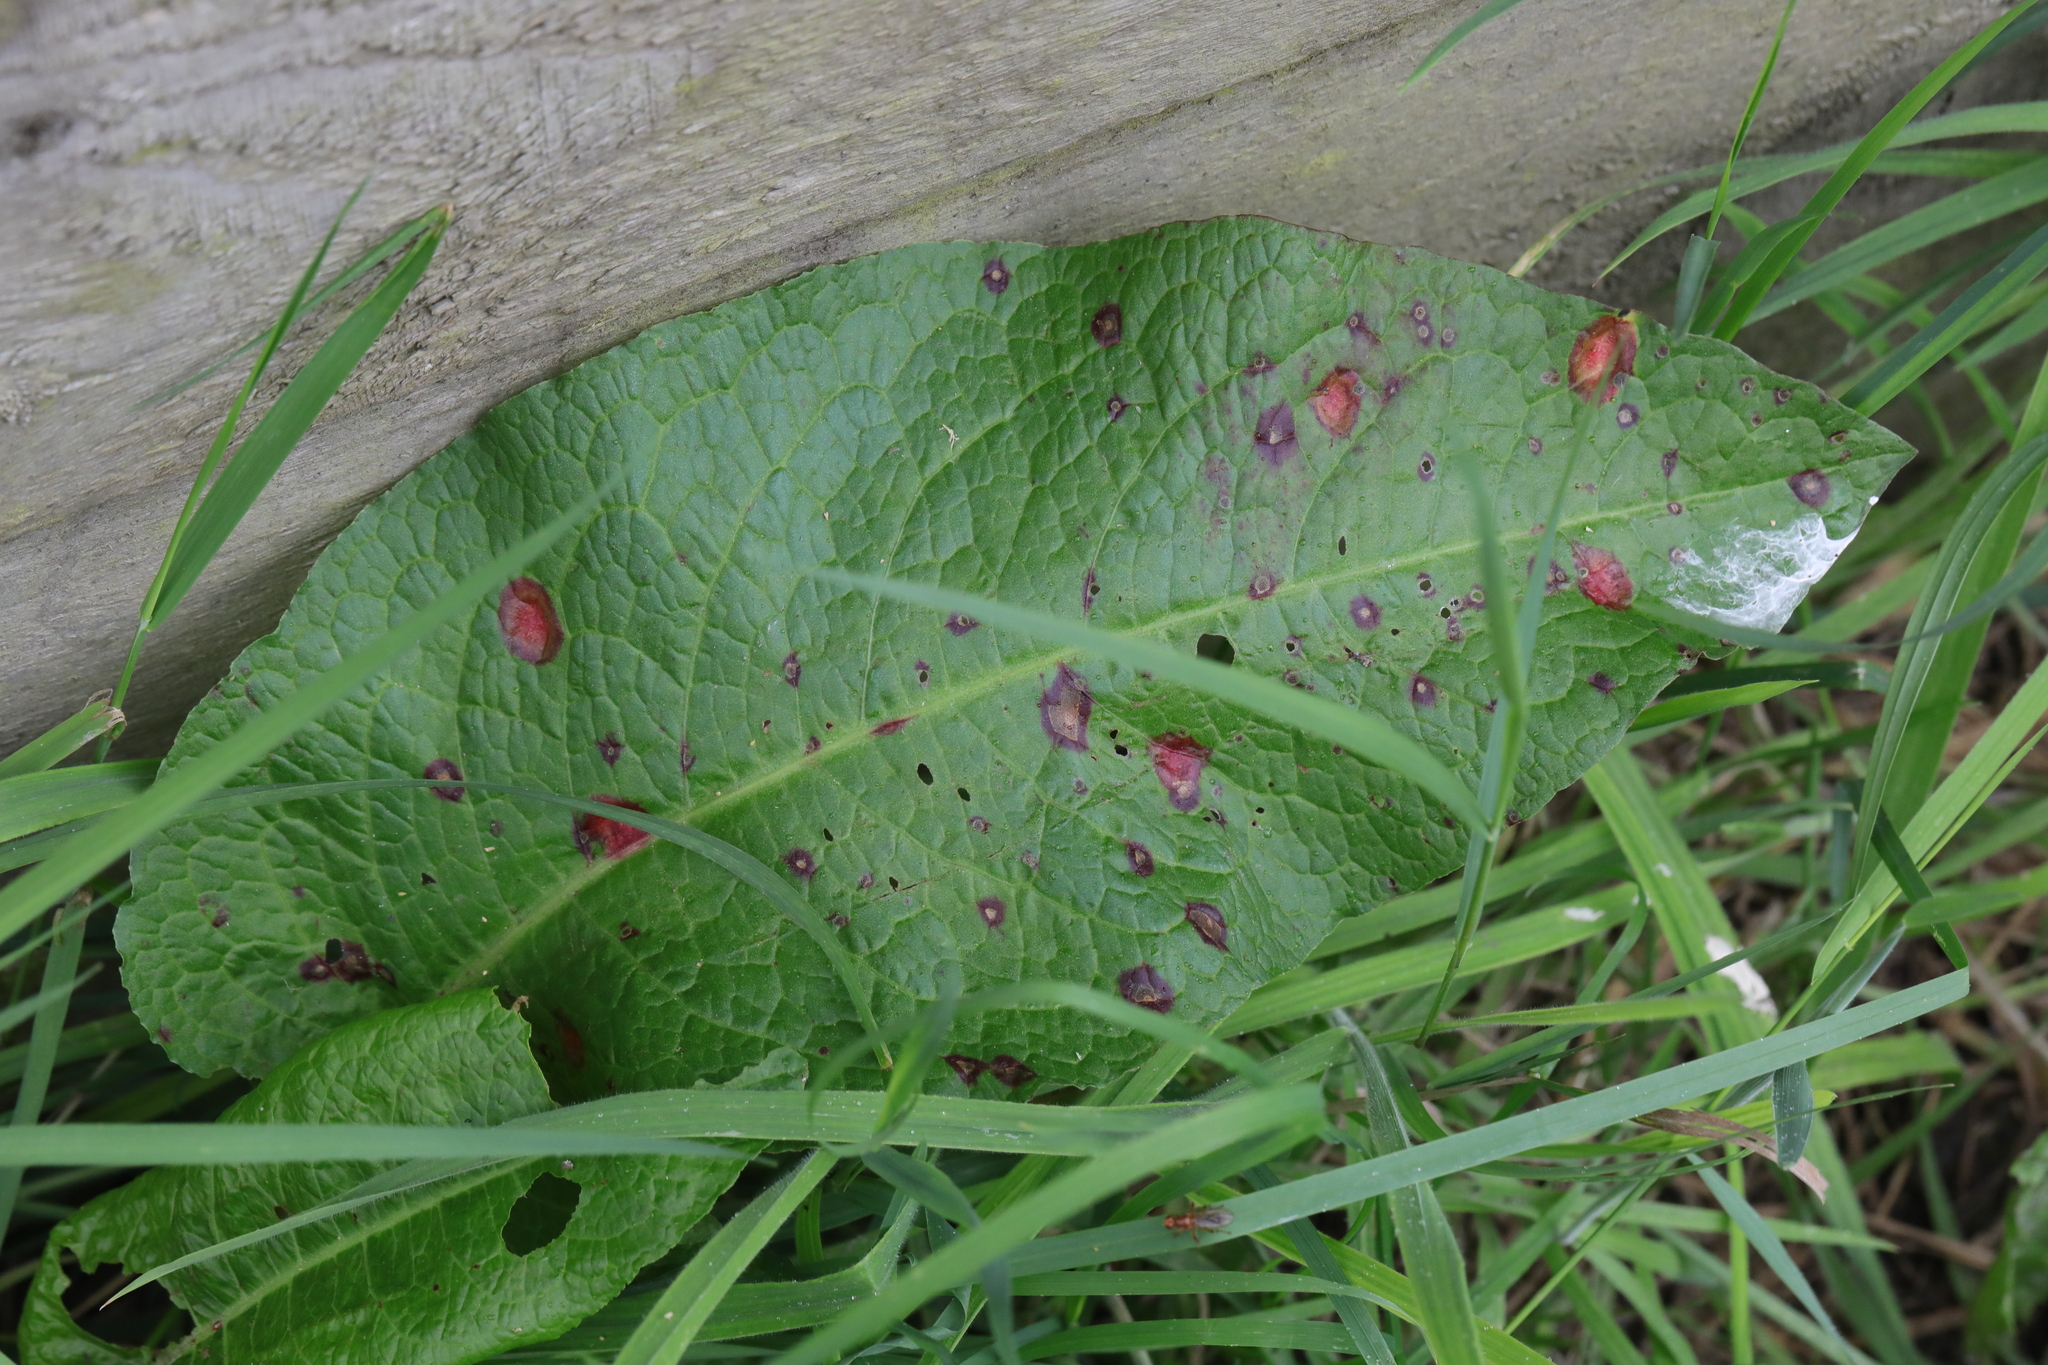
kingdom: Plantae
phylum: Tracheophyta
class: Magnoliopsida
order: Caryophyllales
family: Polygonaceae
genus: Rumex
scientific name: Rumex obtusifolius
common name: Bitter dock
